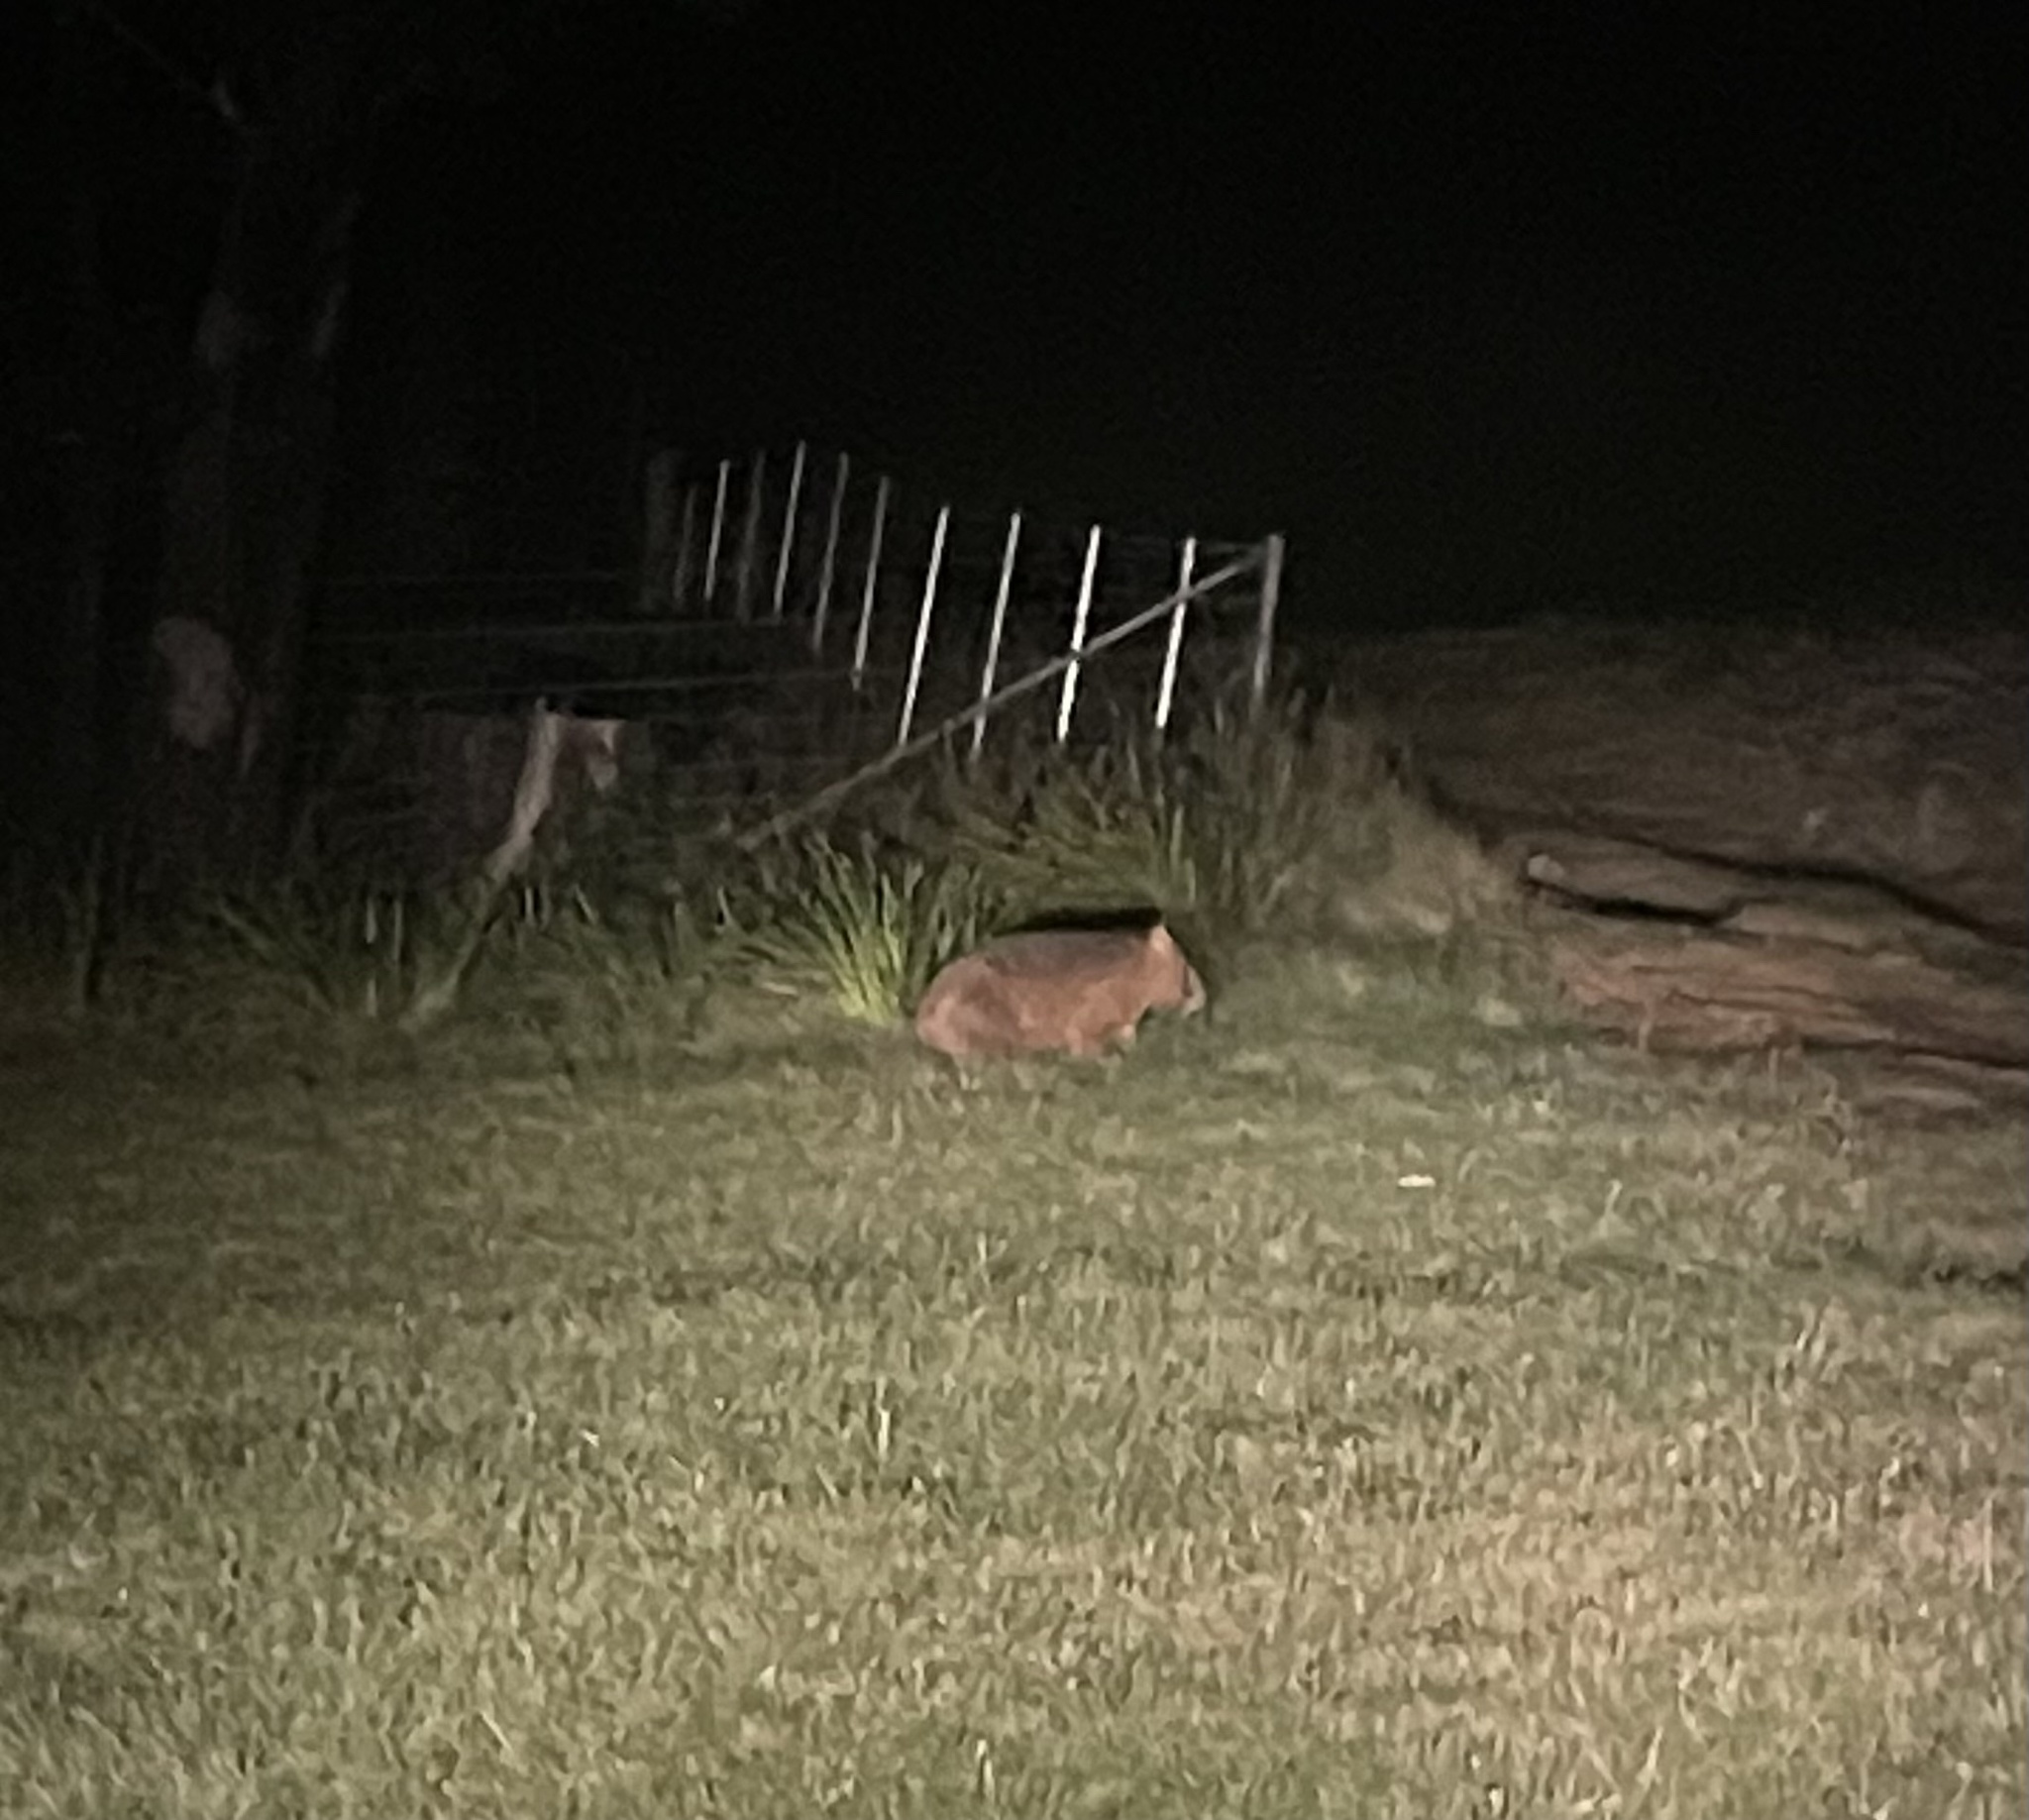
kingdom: Animalia
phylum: Chordata
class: Mammalia
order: Diprotodontia
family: Vombatidae
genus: Vombatus
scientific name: Vombatus ursinus
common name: Common wombat
